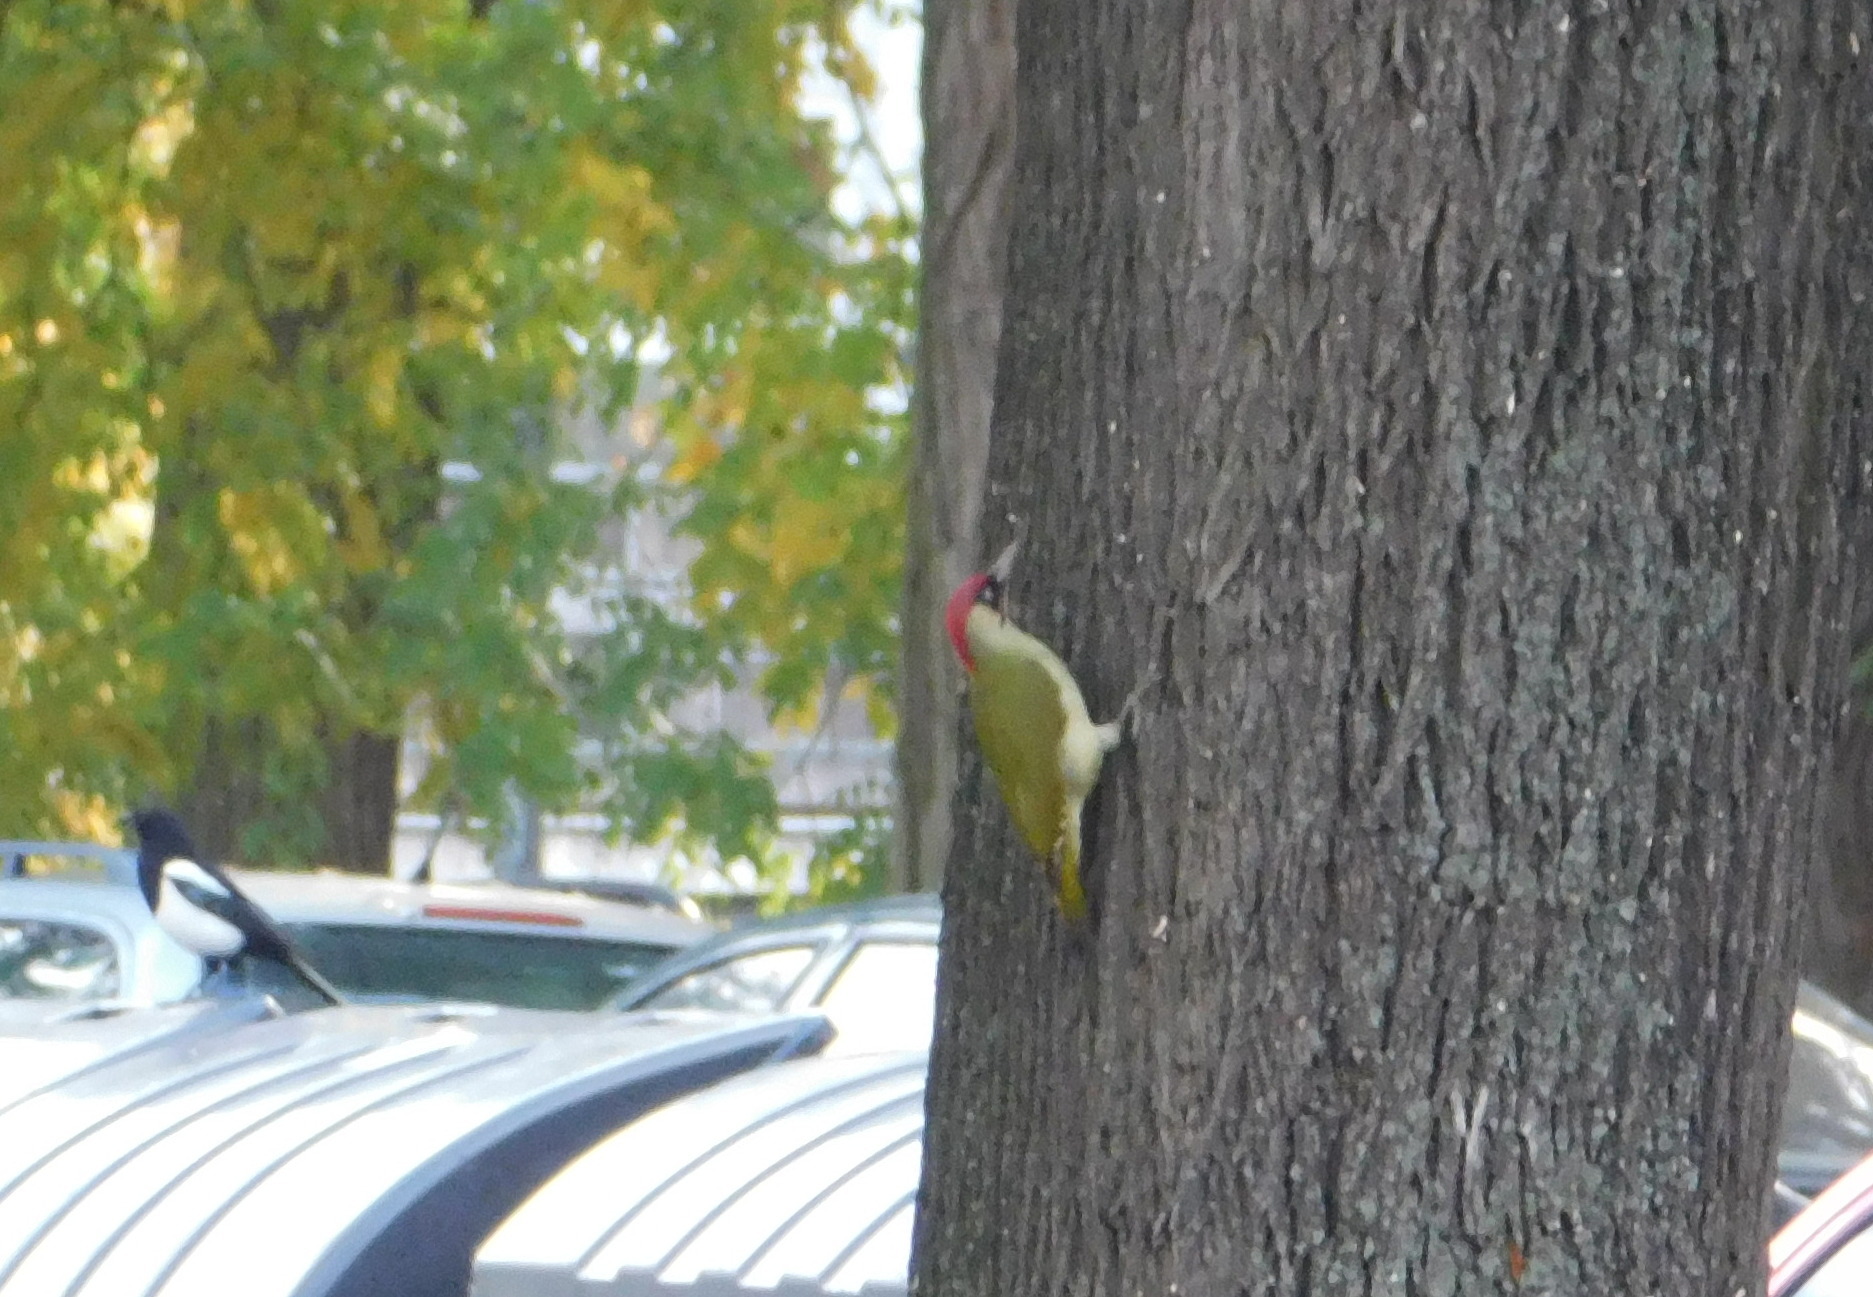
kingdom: Animalia
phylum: Chordata
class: Aves
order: Piciformes
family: Picidae
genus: Picus
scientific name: Picus viridis
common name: European green woodpecker
